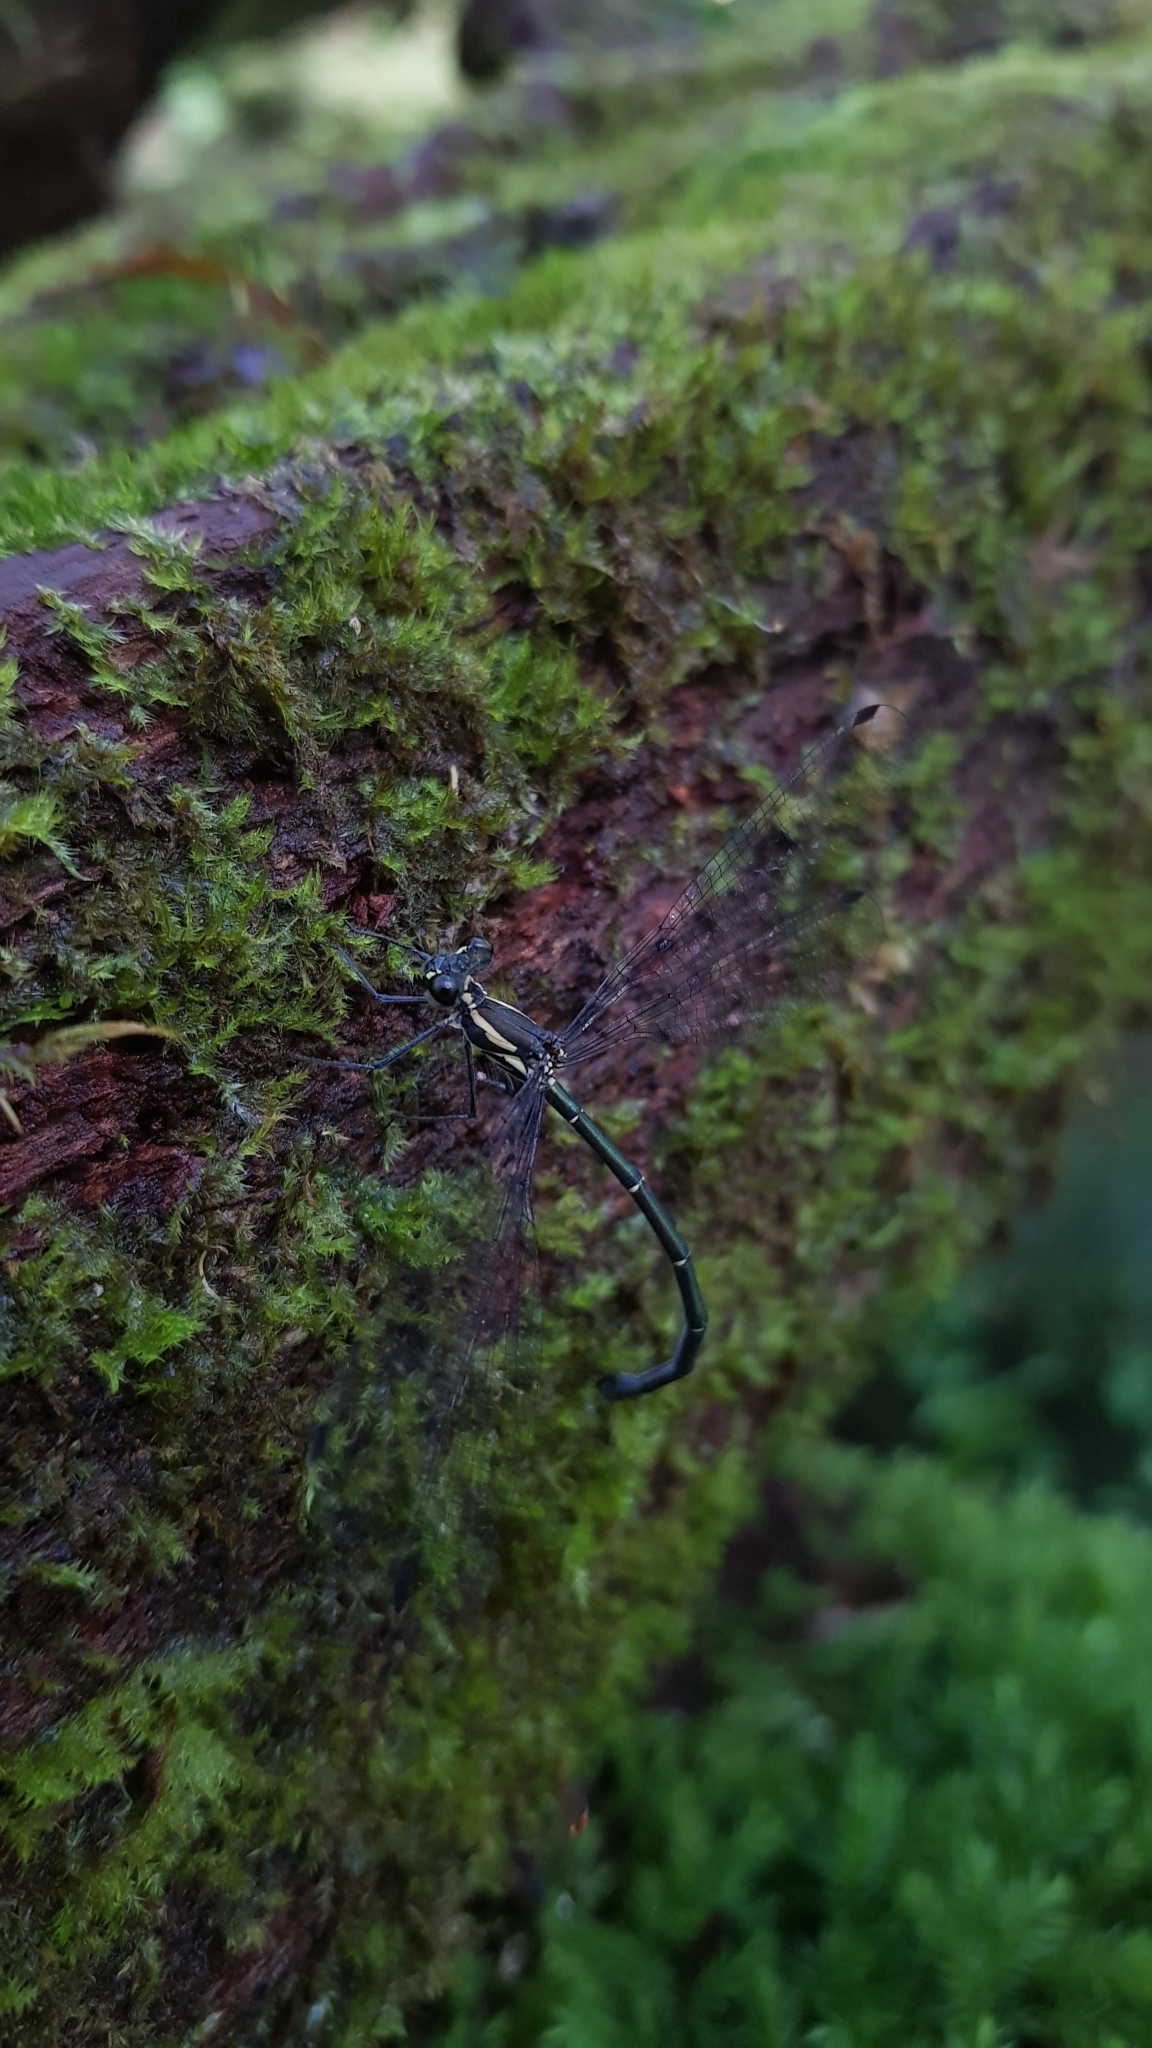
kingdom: Animalia
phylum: Arthropoda
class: Insecta
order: Odonata
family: Argiolestidae
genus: Austroargiolestes
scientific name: Austroargiolestes icteromelas
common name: Common flatwing
